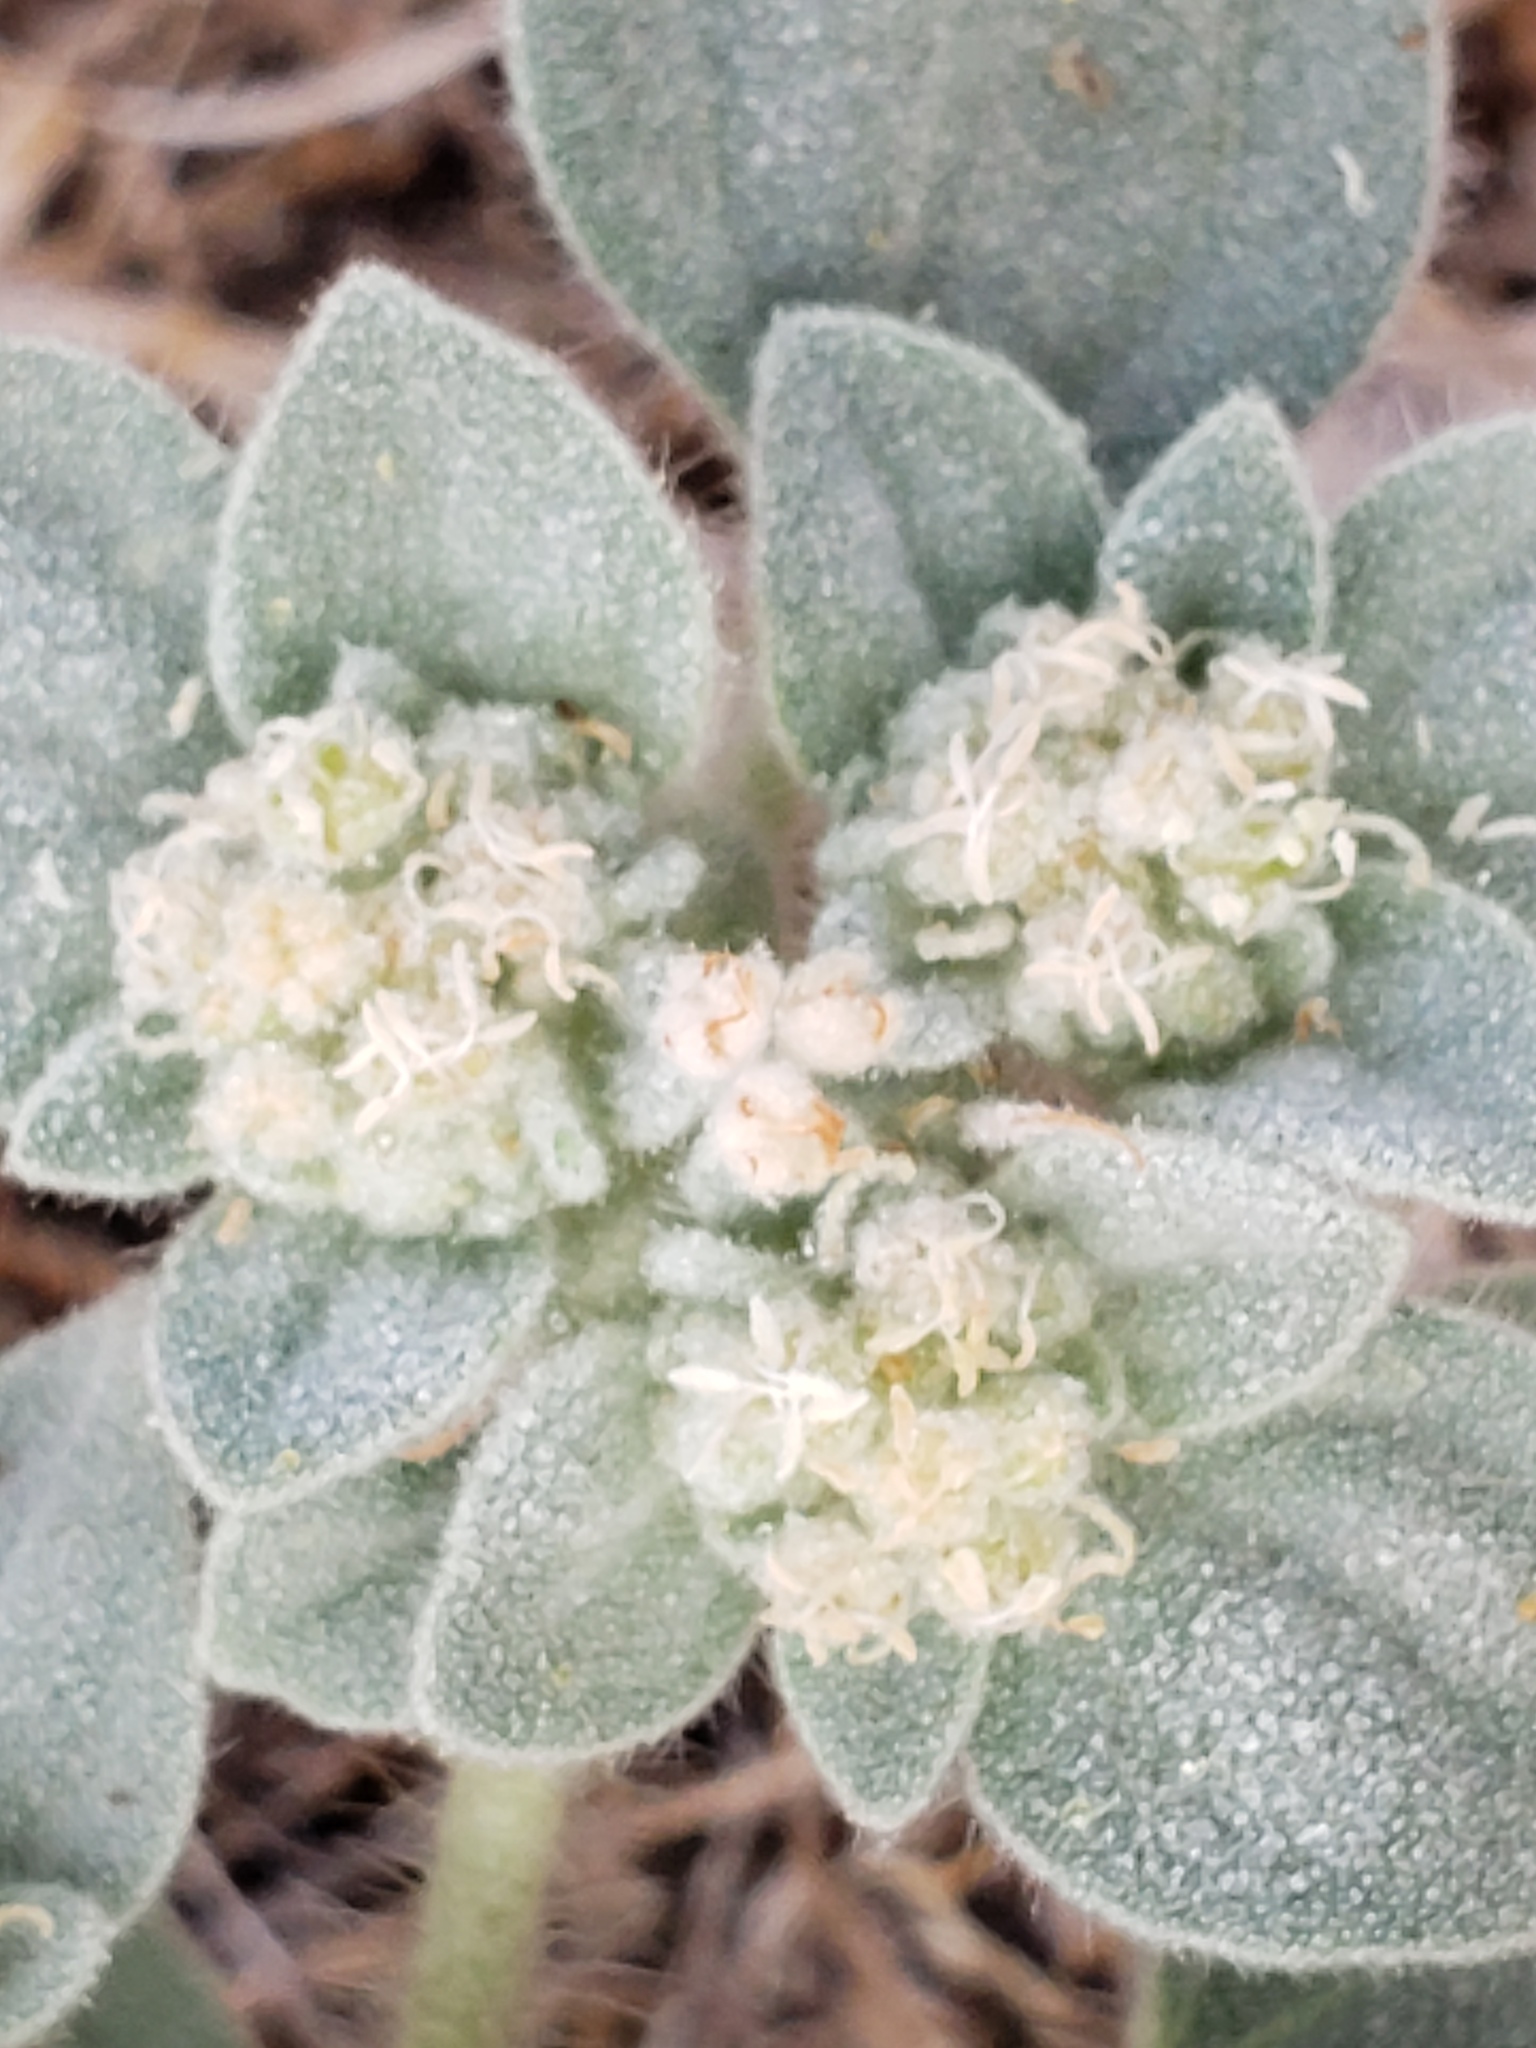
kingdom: Plantae
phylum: Tracheophyta
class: Magnoliopsida
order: Malpighiales
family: Euphorbiaceae
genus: Croton
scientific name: Croton setiger
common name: Dove weed
